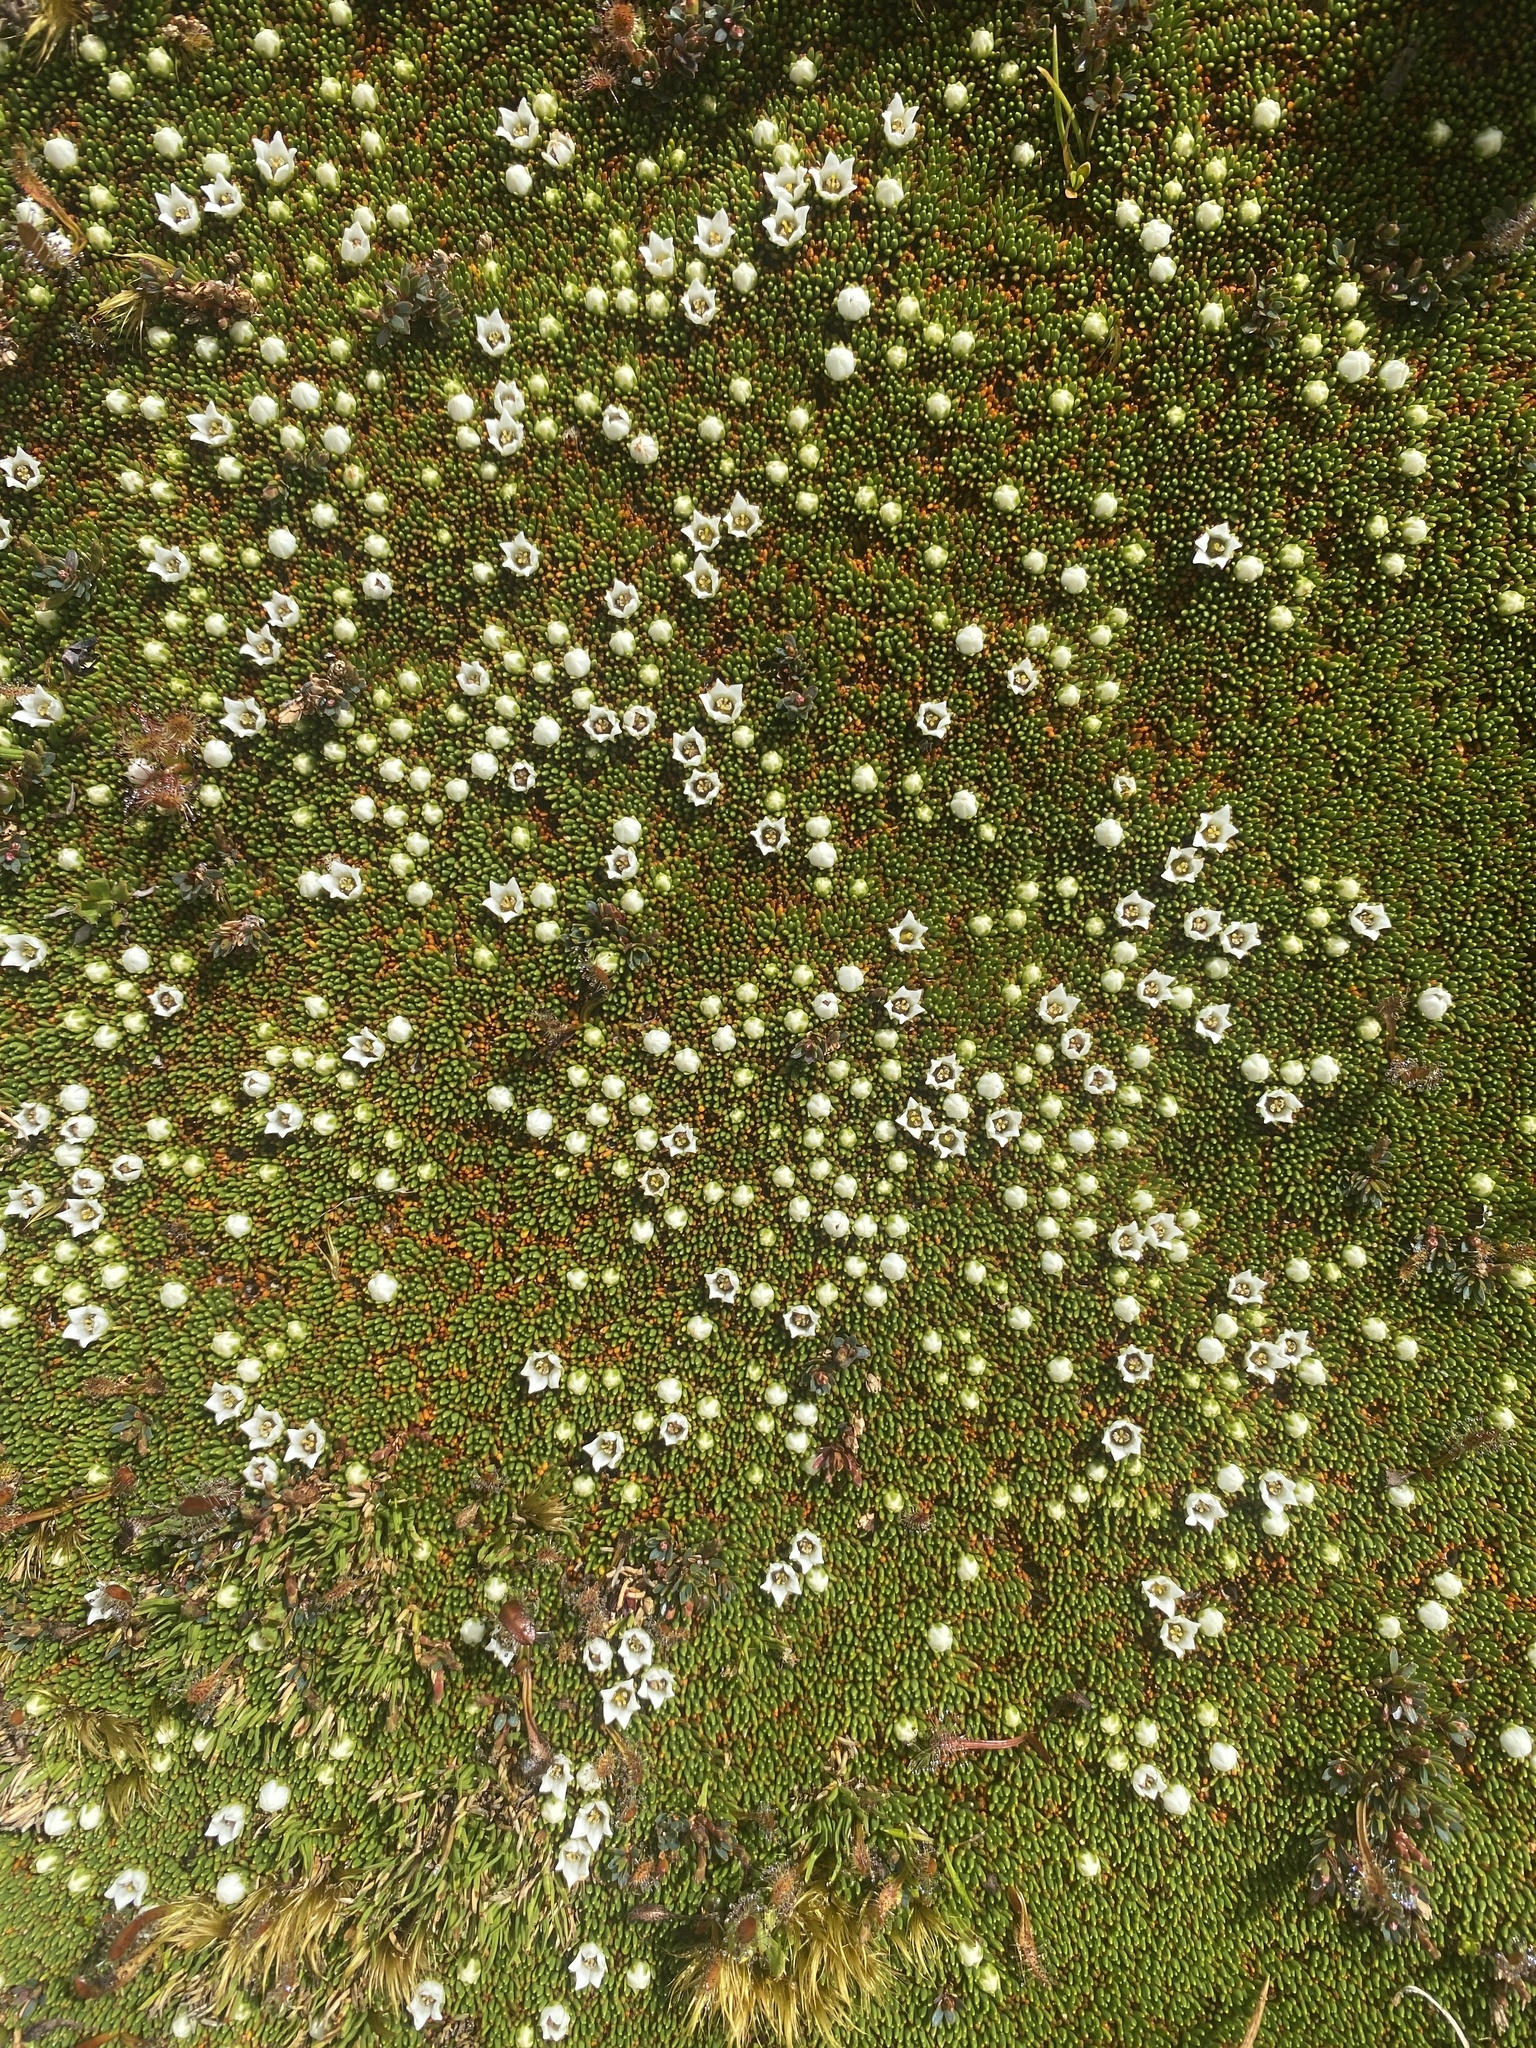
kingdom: Plantae
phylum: Tracheophyta
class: Magnoliopsida
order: Asterales
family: Stylidiaceae
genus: Donatia
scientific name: Donatia novae-zelandiae
